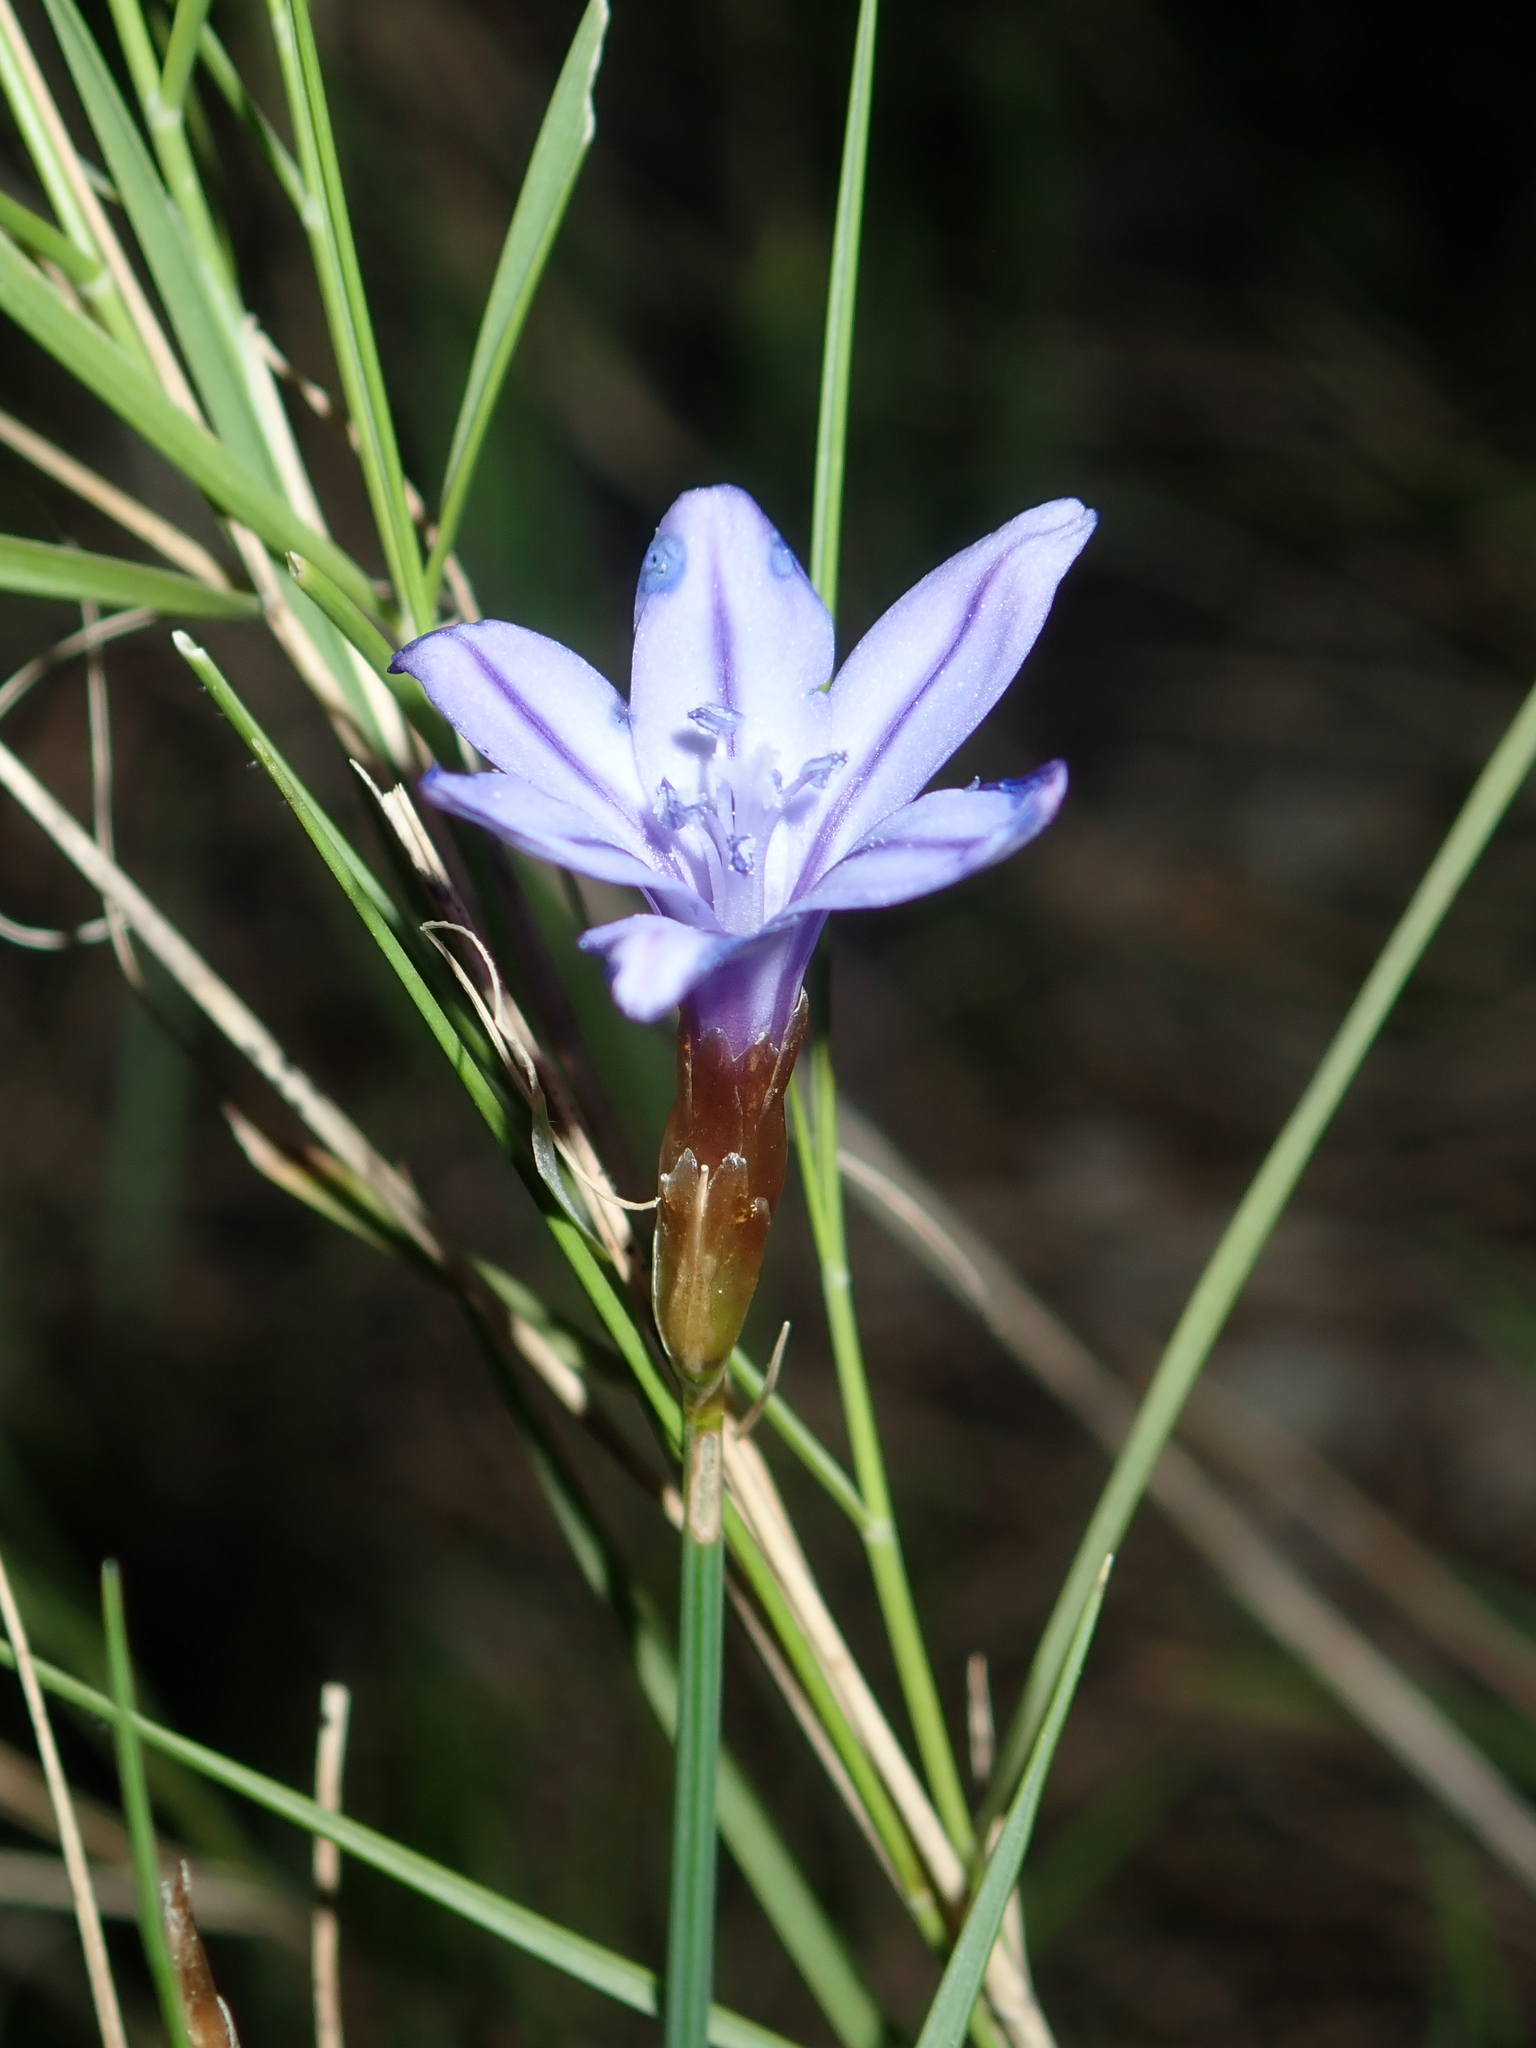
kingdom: Plantae
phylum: Tracheophyta
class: Liliopsida
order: Asparagales
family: Asparagaceae
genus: Aphyllanthes
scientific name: Aphyllanthes monspeliensis
